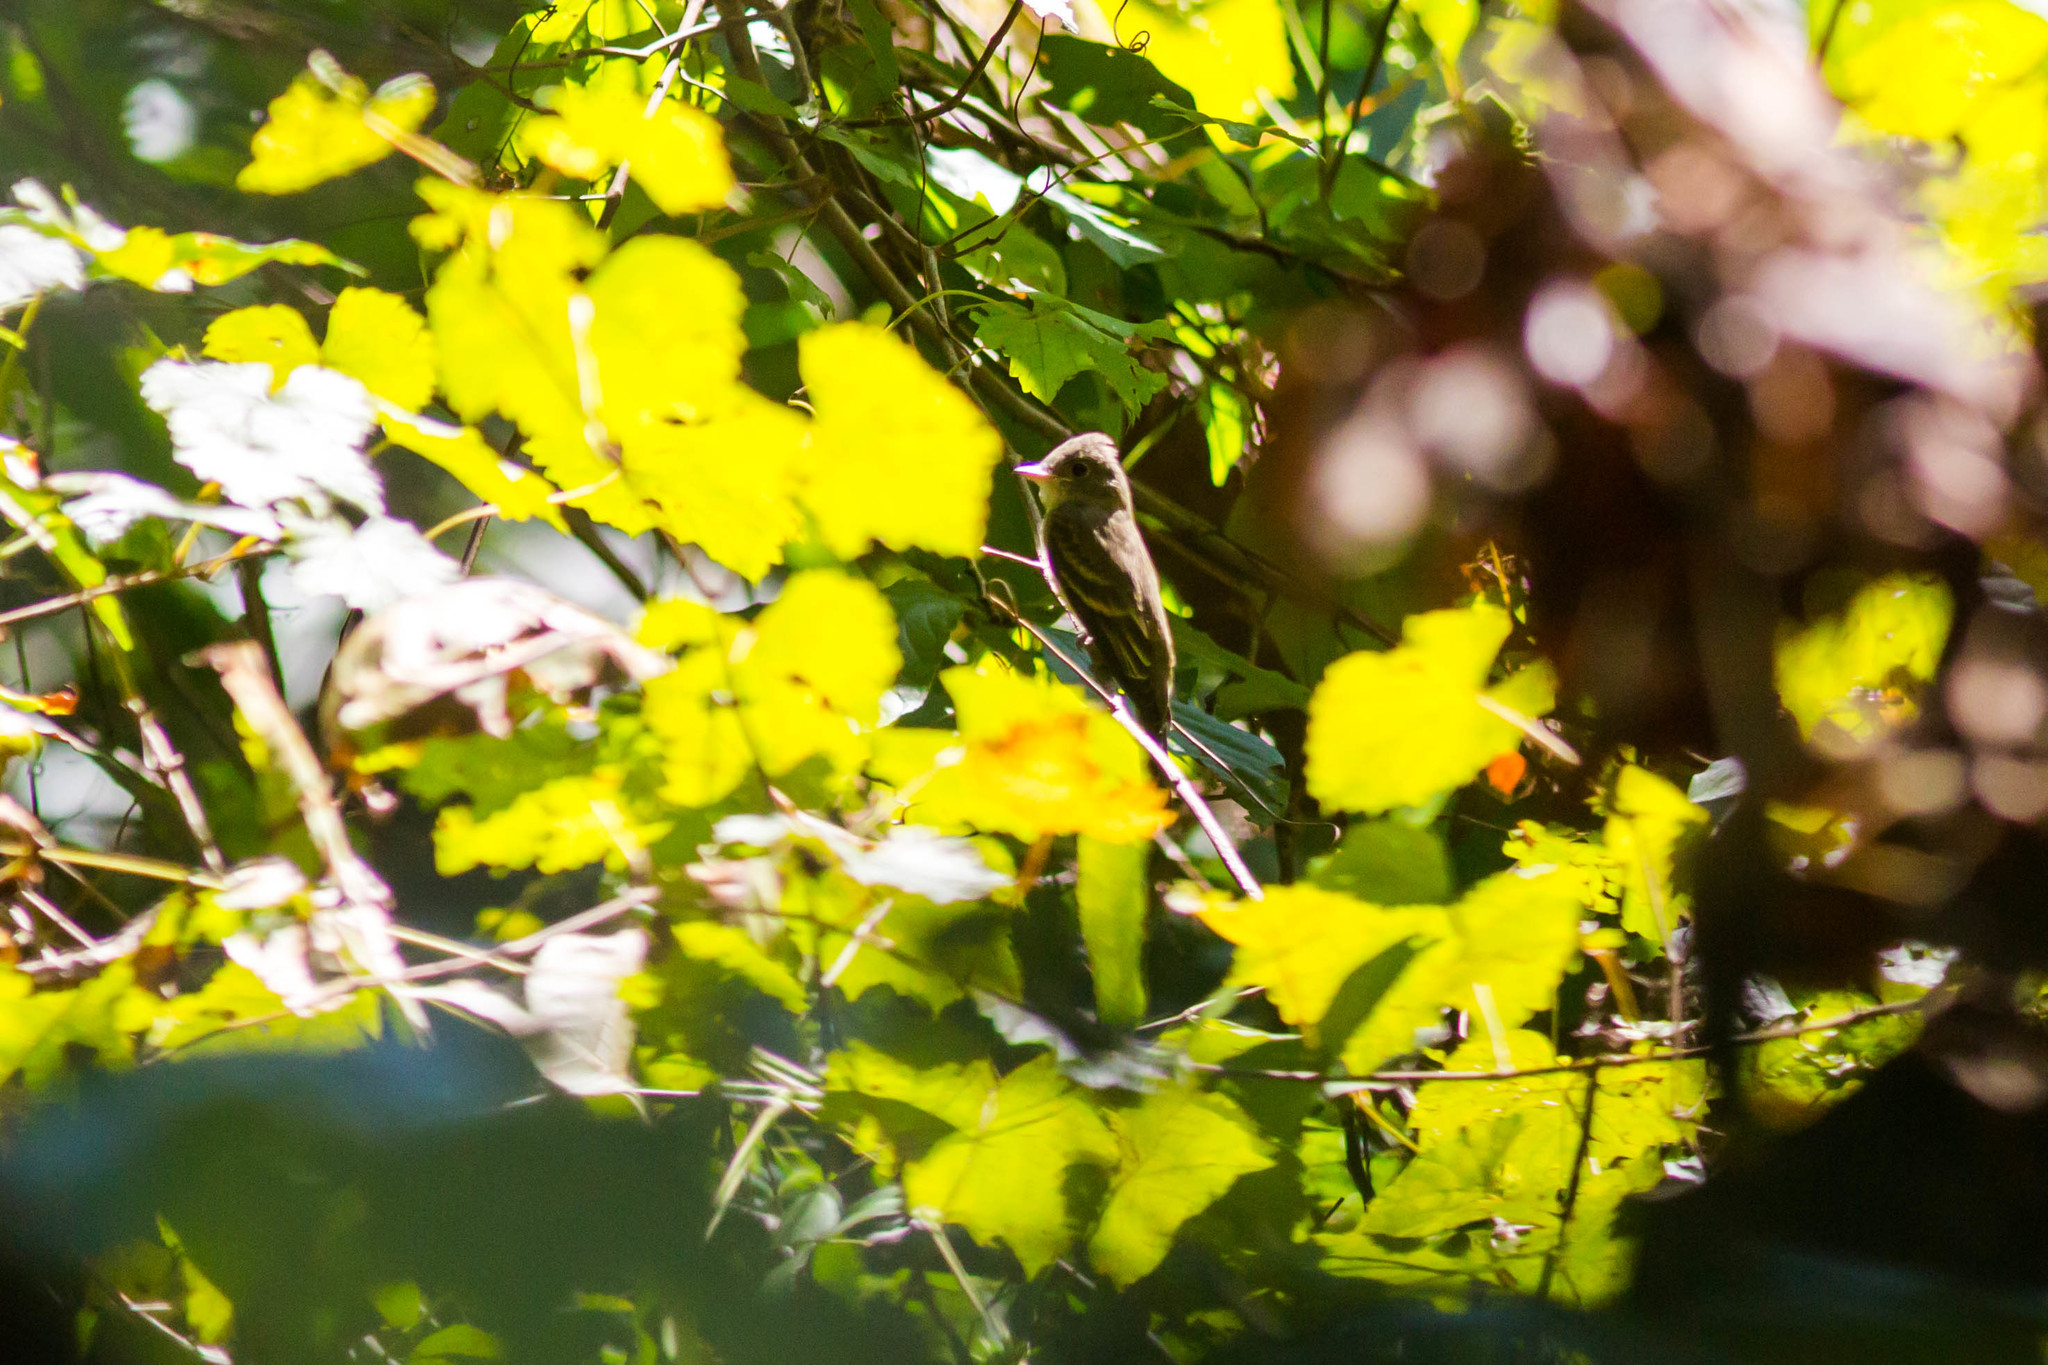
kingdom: Animalia
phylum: Chordata
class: Aves
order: Passeriformes
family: Tyrannidae
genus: Contopus
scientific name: Contopus virens
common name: Eastern wood-pewee
